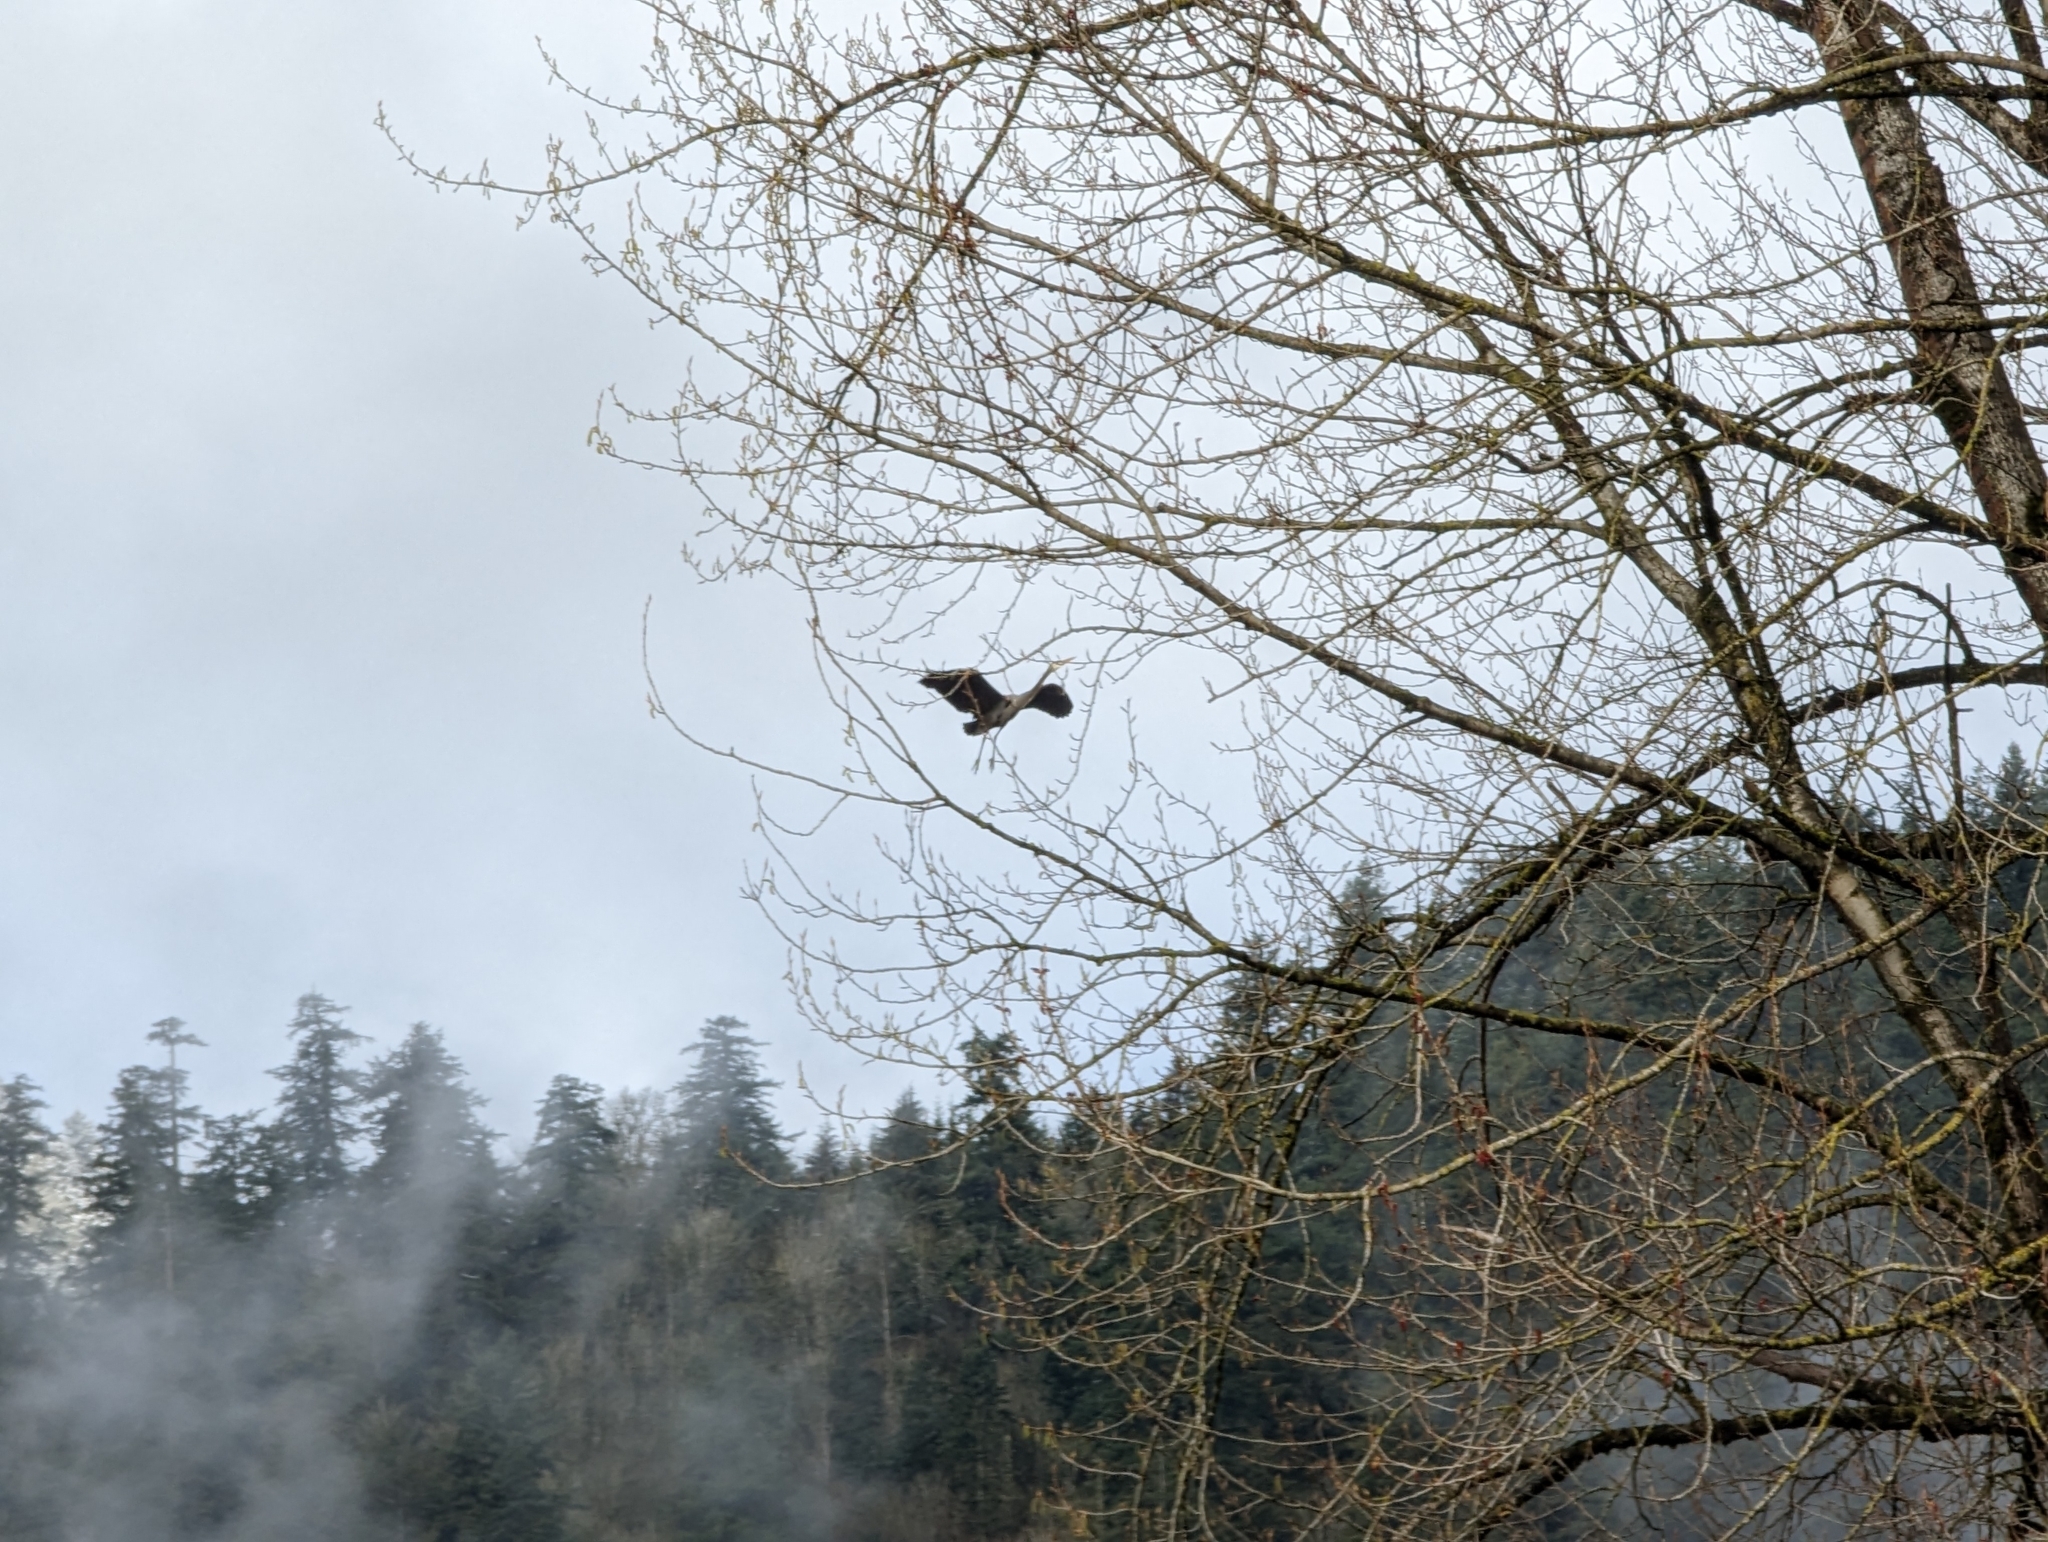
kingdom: Animalia
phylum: Chordata
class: Aves
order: Pelecaniformes
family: Ardeidae
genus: Ardea
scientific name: Ardea herodias
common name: Great blue heron
